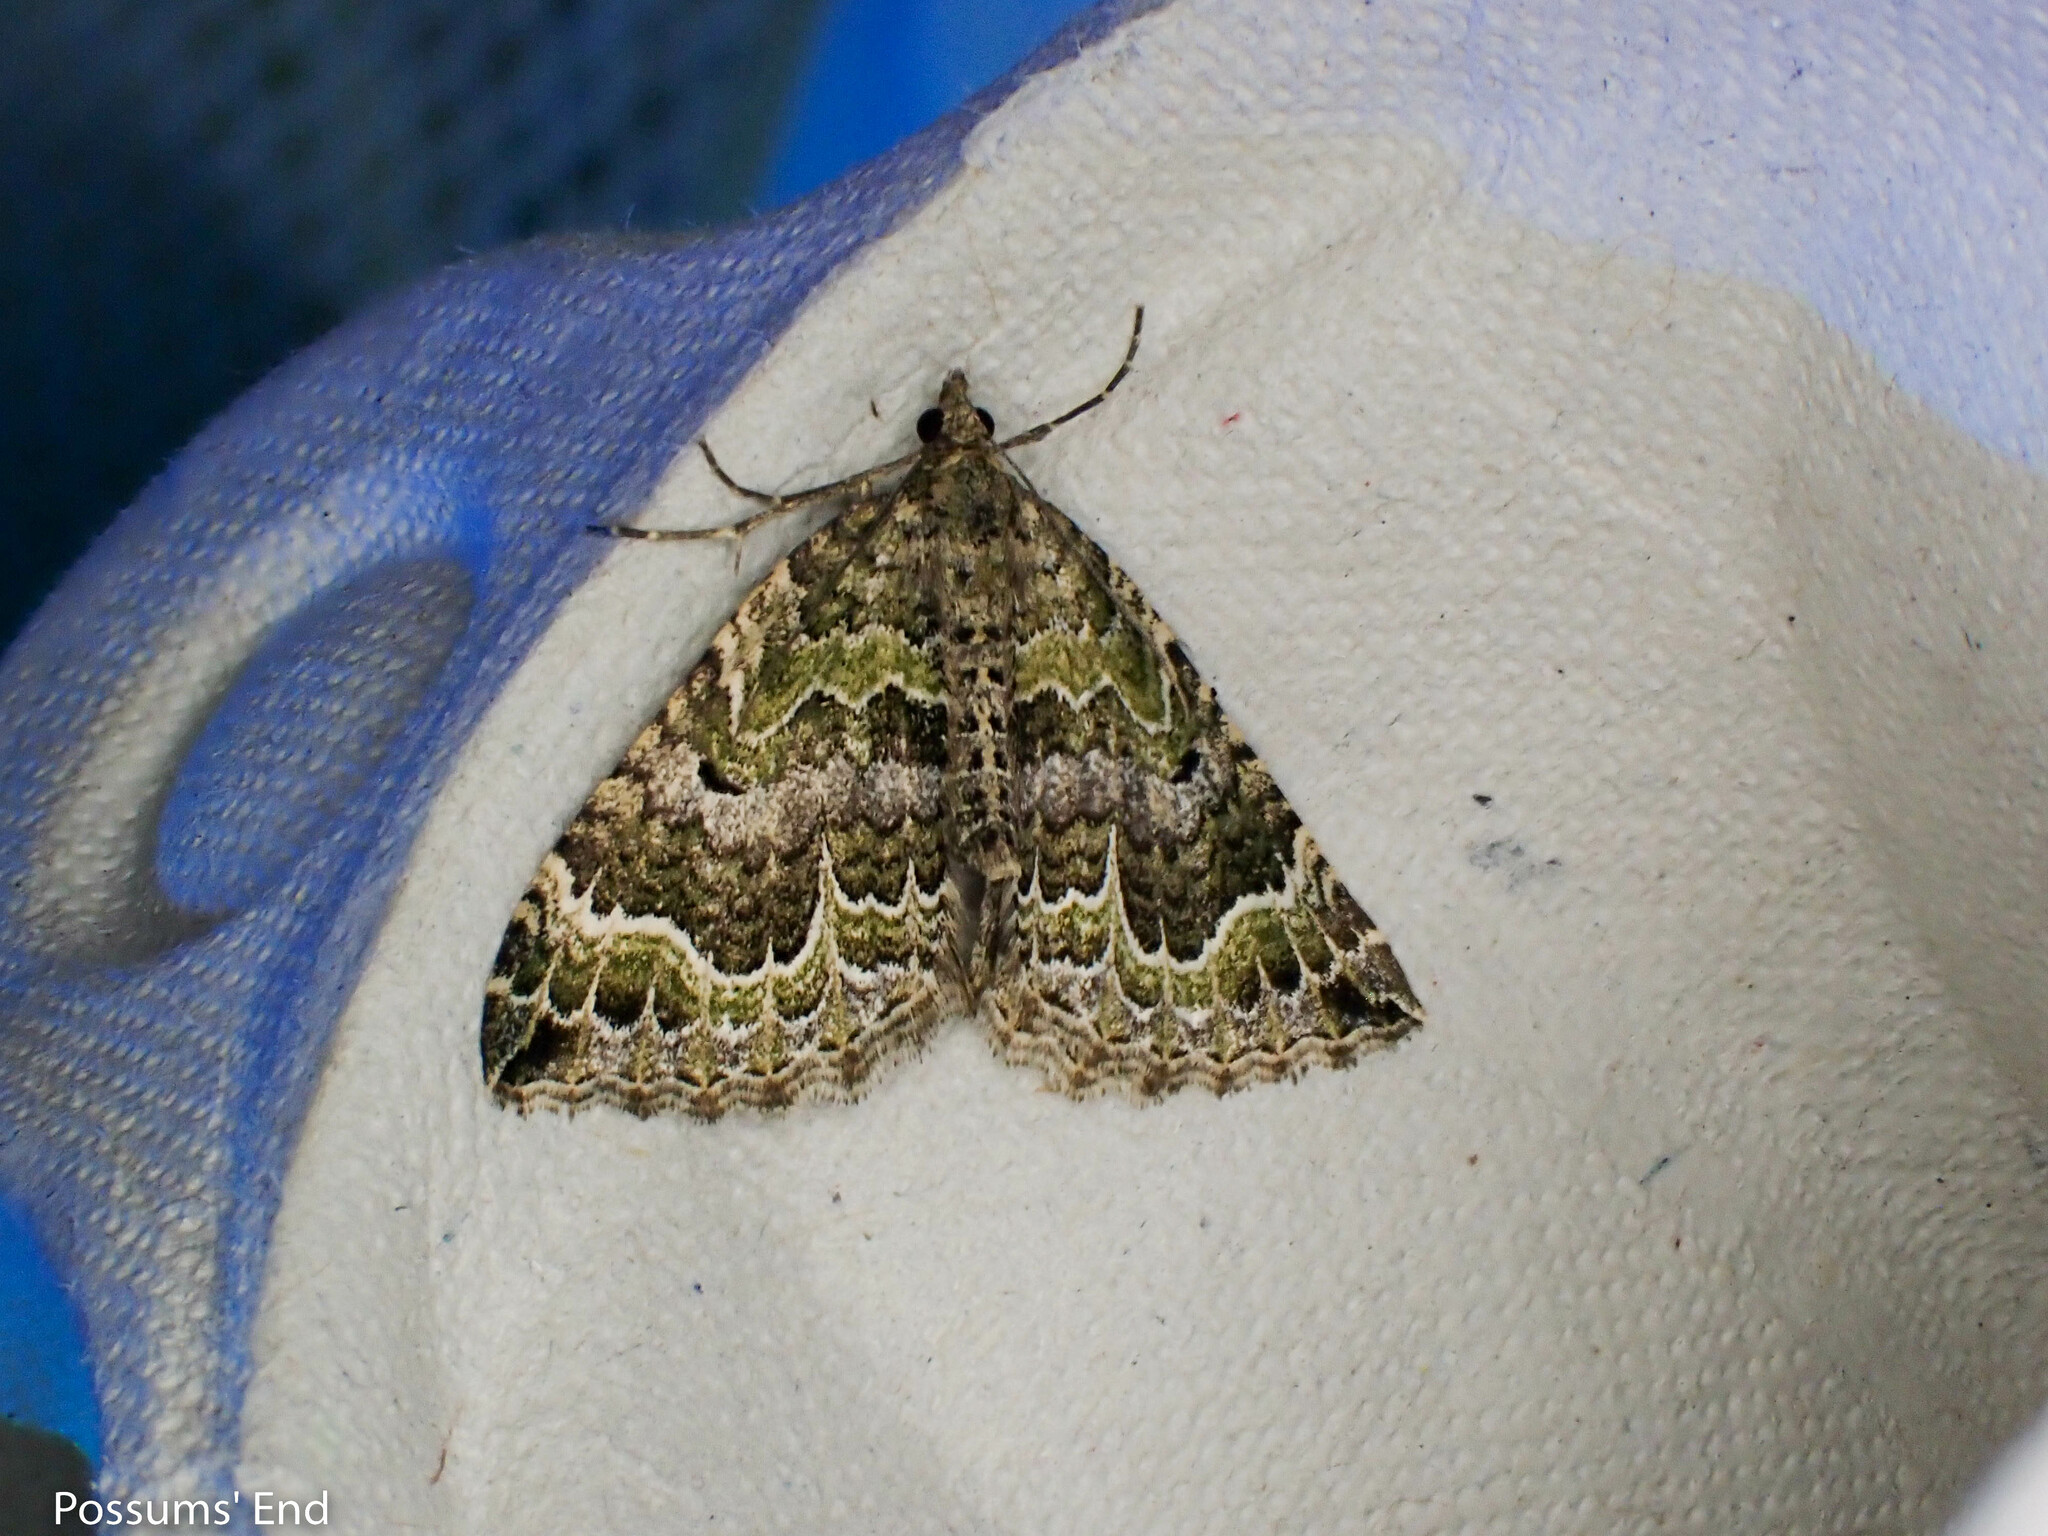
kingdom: Animalia
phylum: Arthropoda
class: Insecta
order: Lepidoptera
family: Geometridae
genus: Hydriomena
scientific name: Hydriomena rixata
